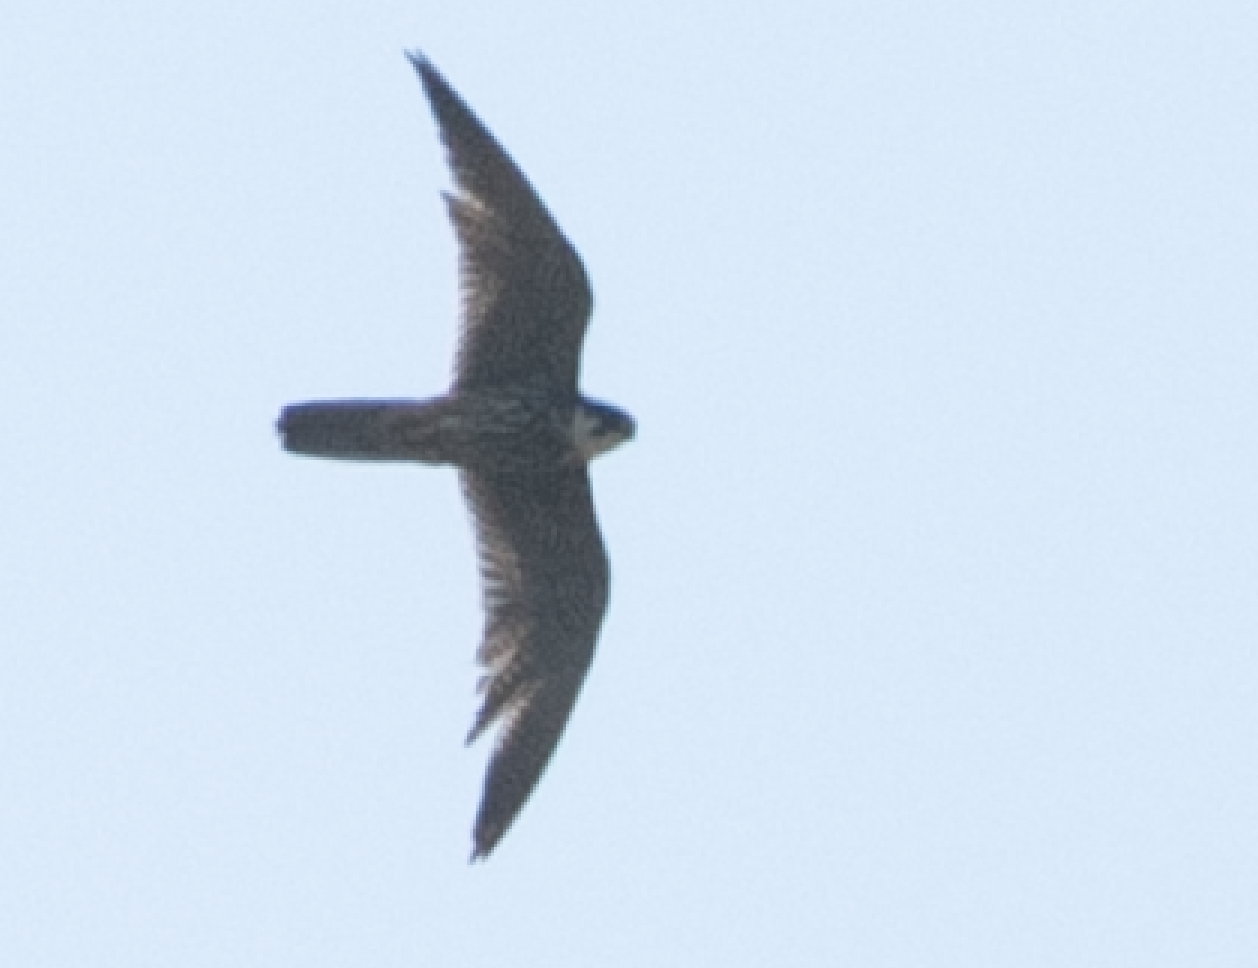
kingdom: Animalia
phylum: Chordata
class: Aves
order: Falconiformes
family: Falconidae
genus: Falco
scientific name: Falco subbuteo
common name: Eurasian hobby
